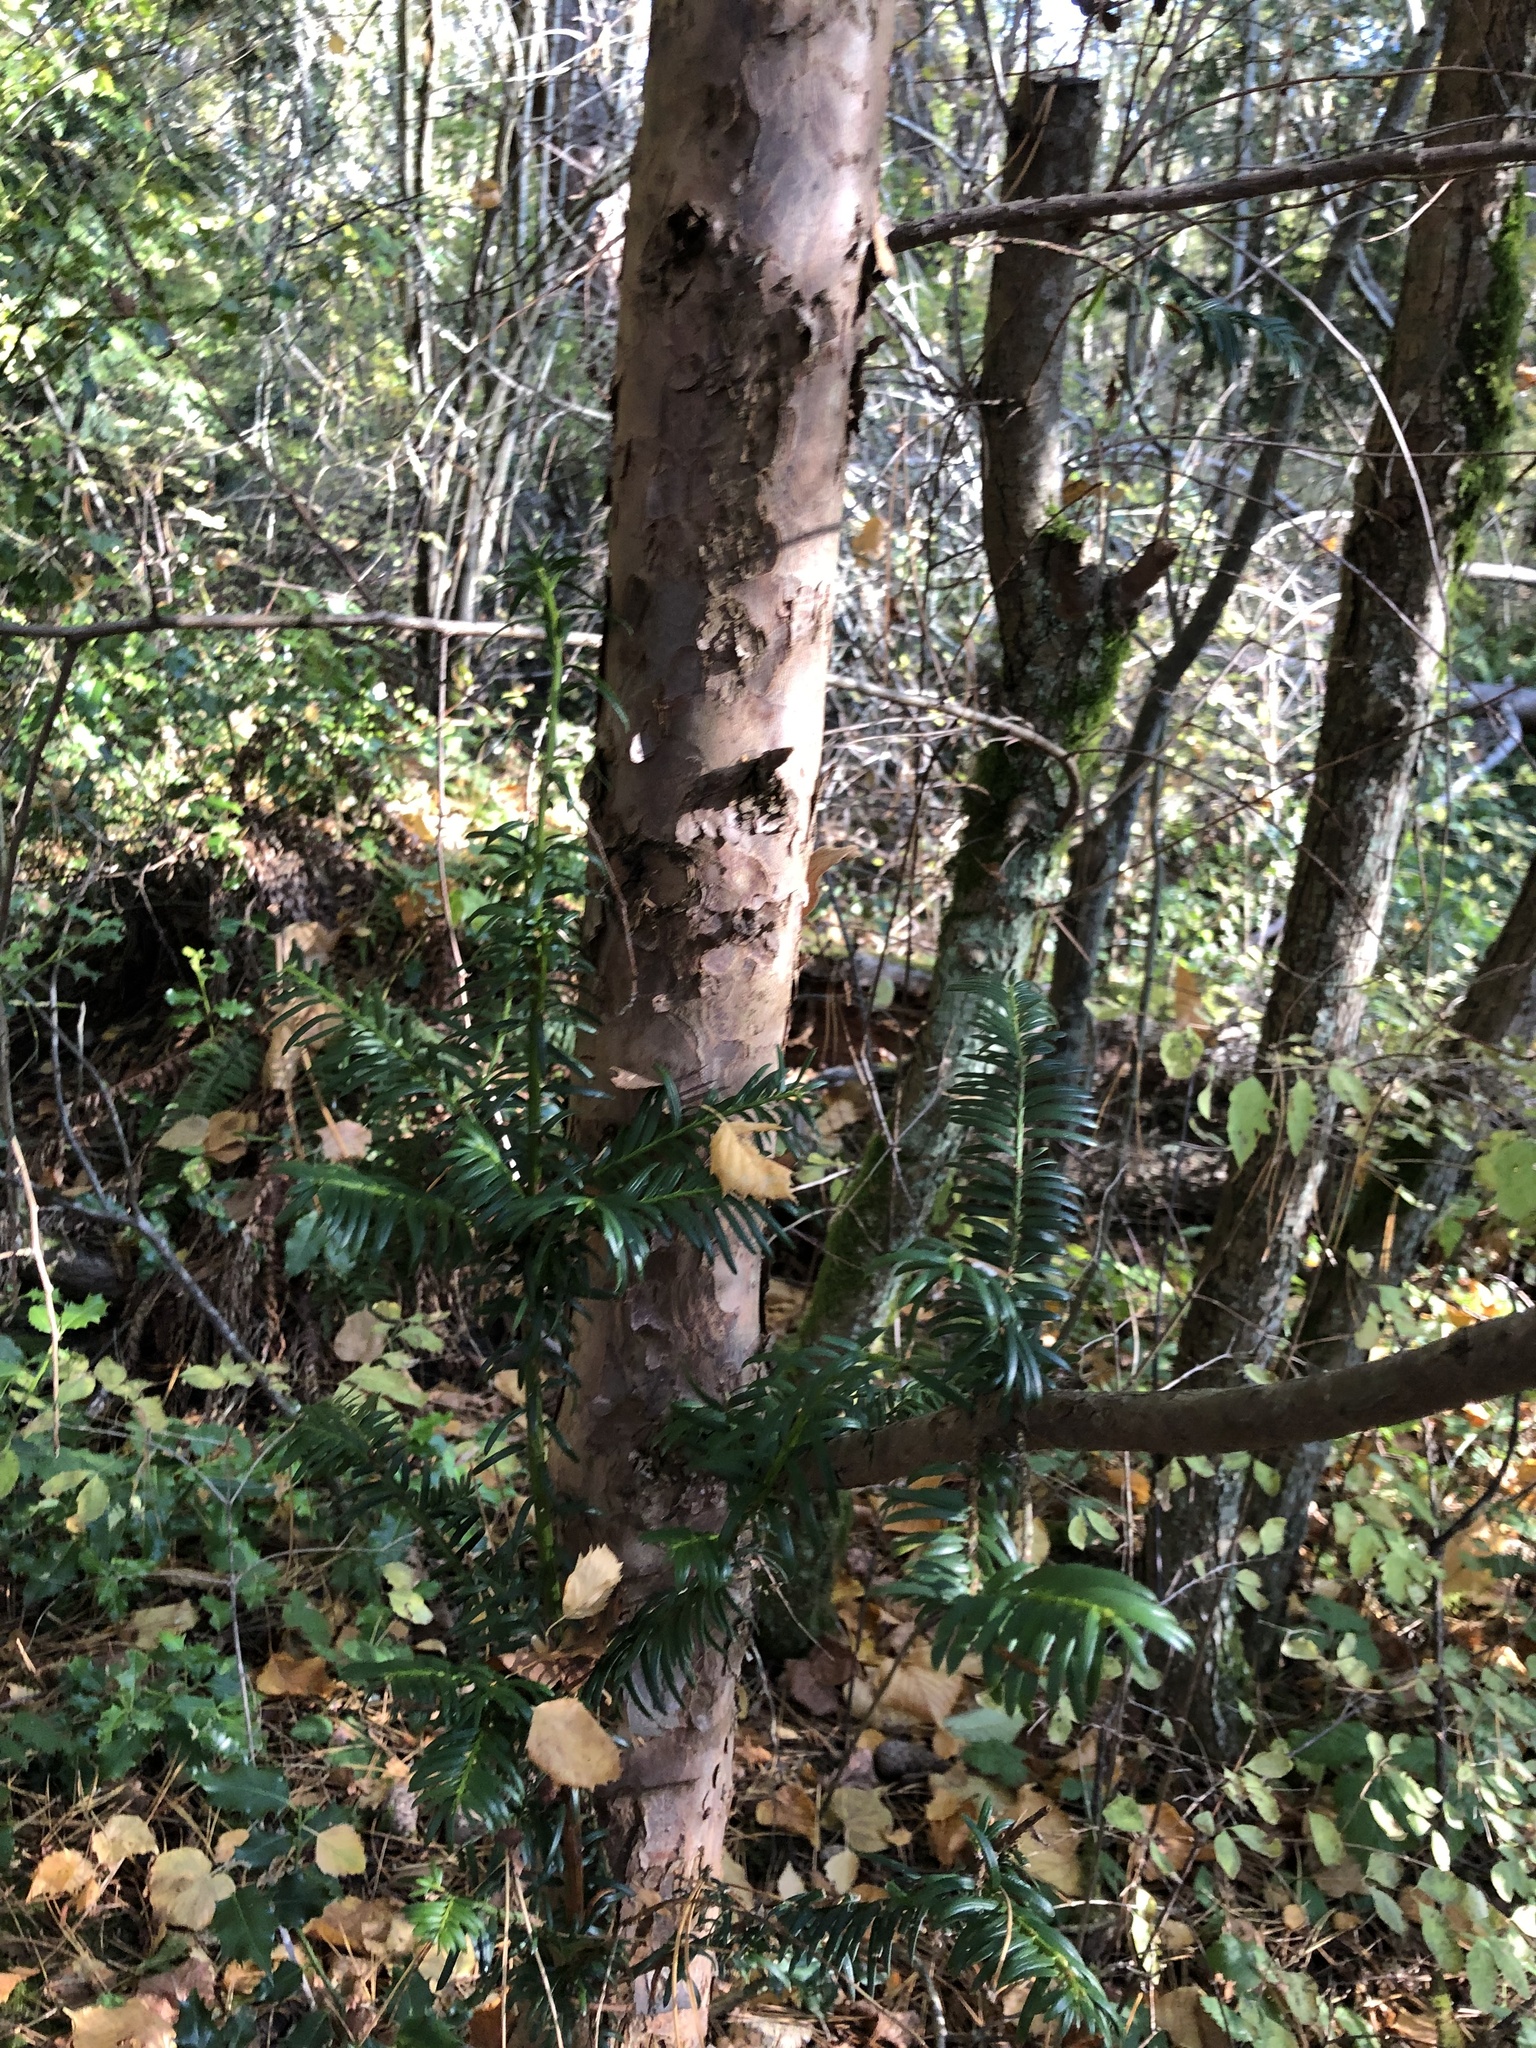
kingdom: Plantae
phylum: Tracheophyta
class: Pinopsida
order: Pinales
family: Taxaceae
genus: Taxus
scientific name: Taxus brevifolia
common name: Pacific yew
